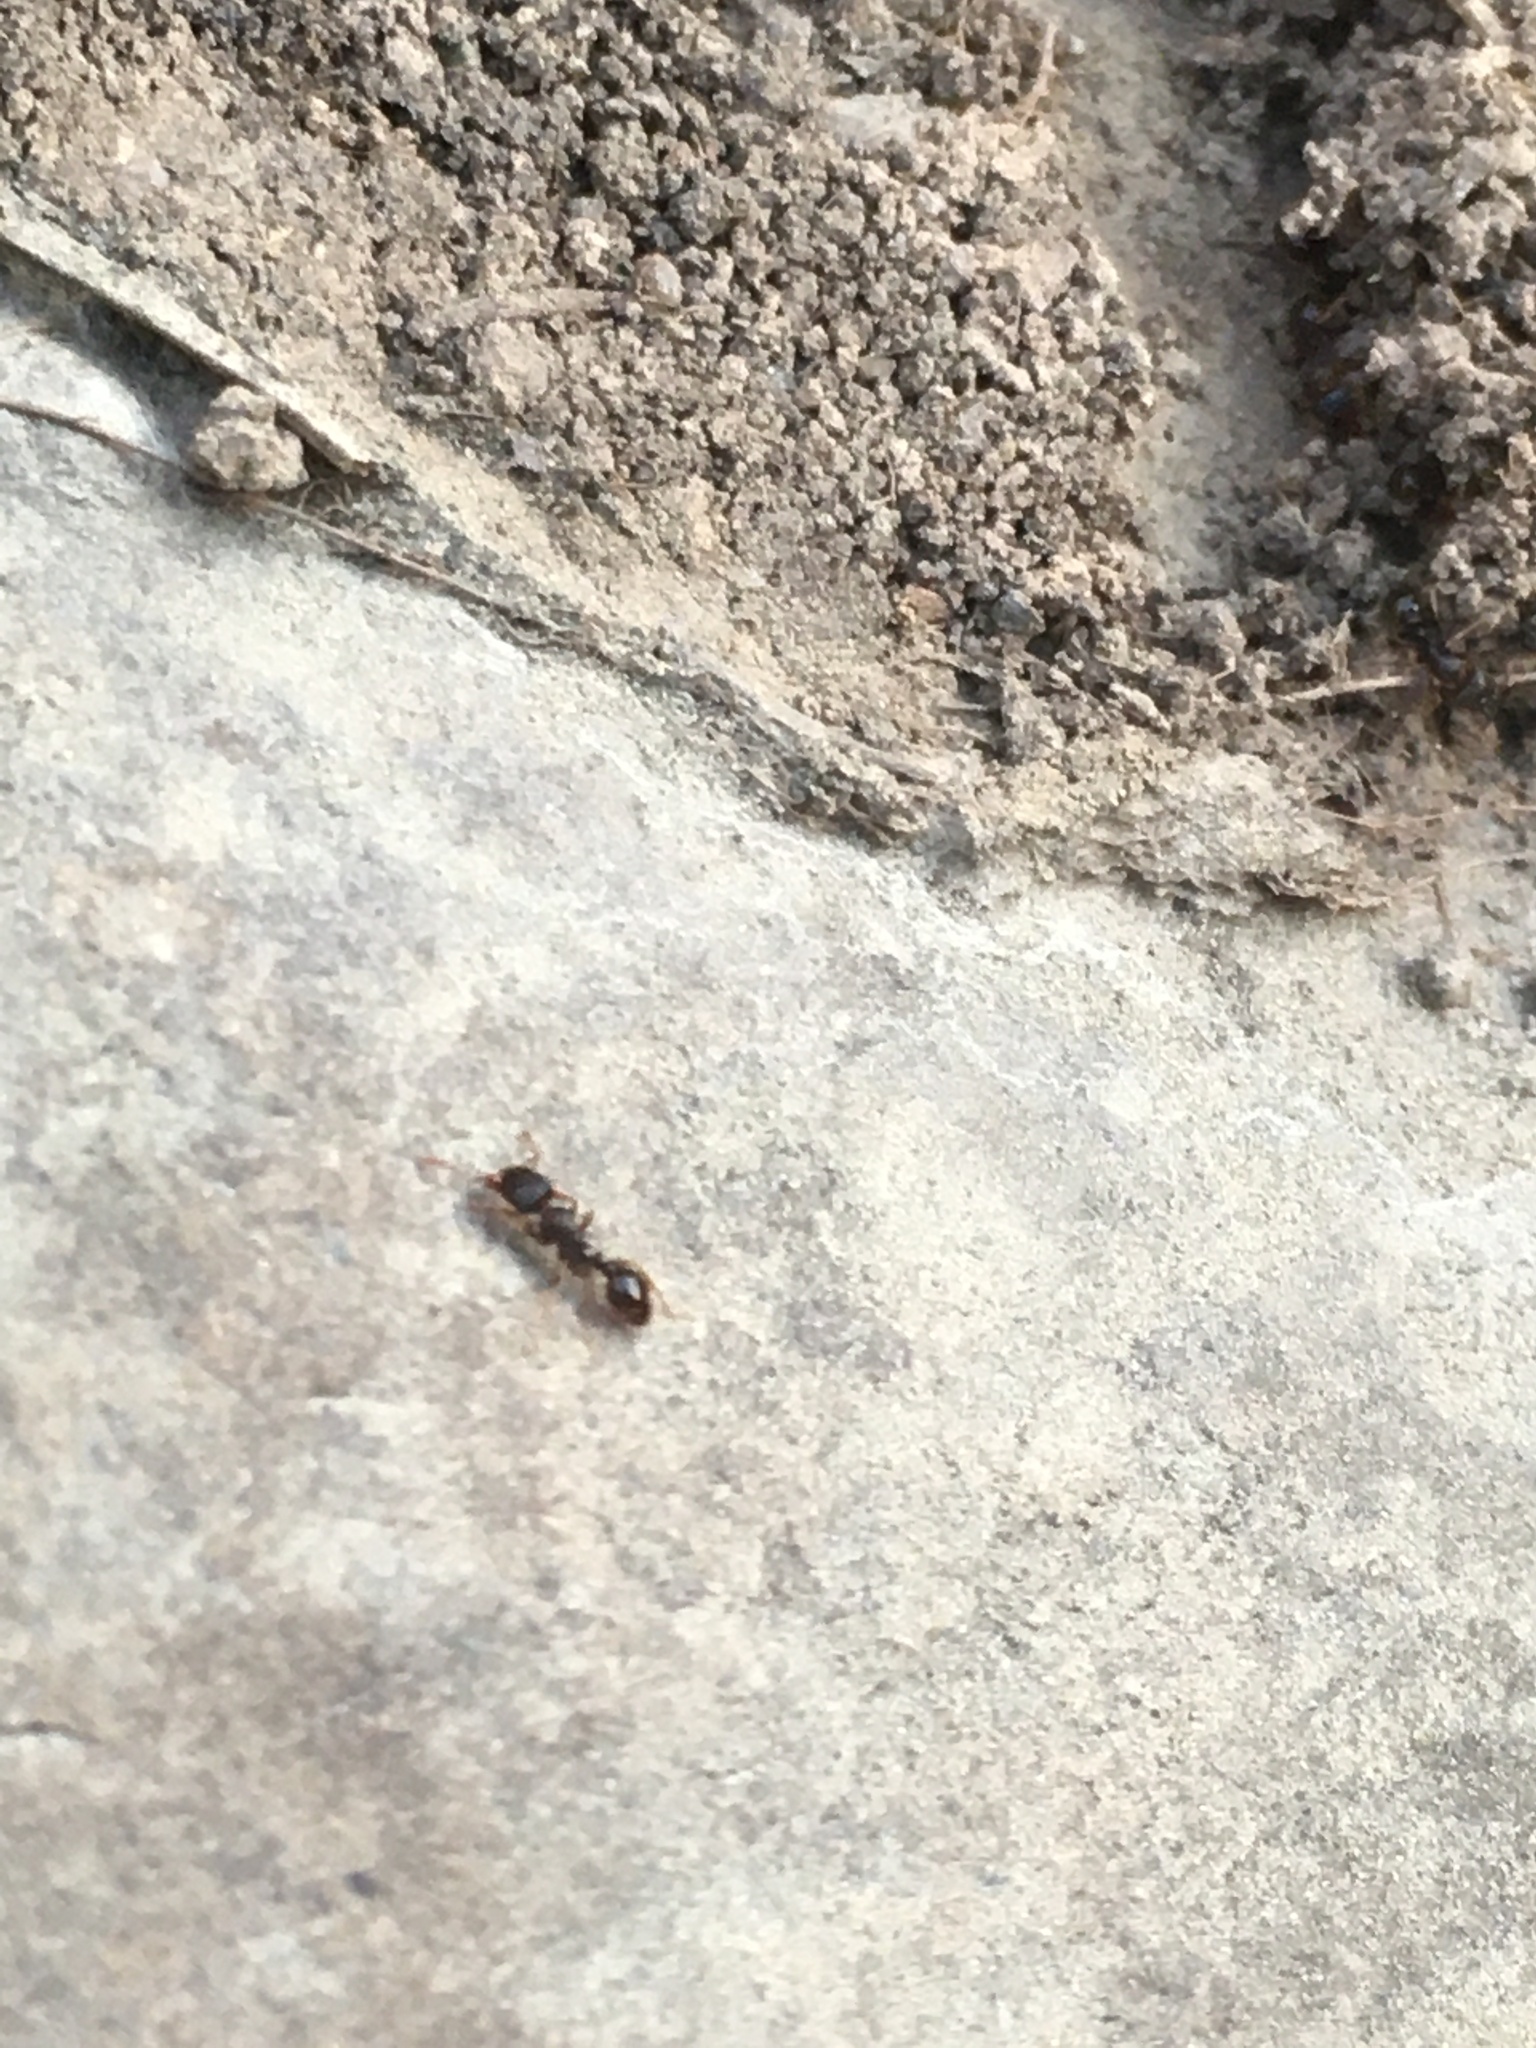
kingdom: Animalia
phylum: Arthropoda
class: Insecta
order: Hymenoptera
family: Formicidae
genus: Tetramorium
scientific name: Tetramorium immigrans
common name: Pavement ant
